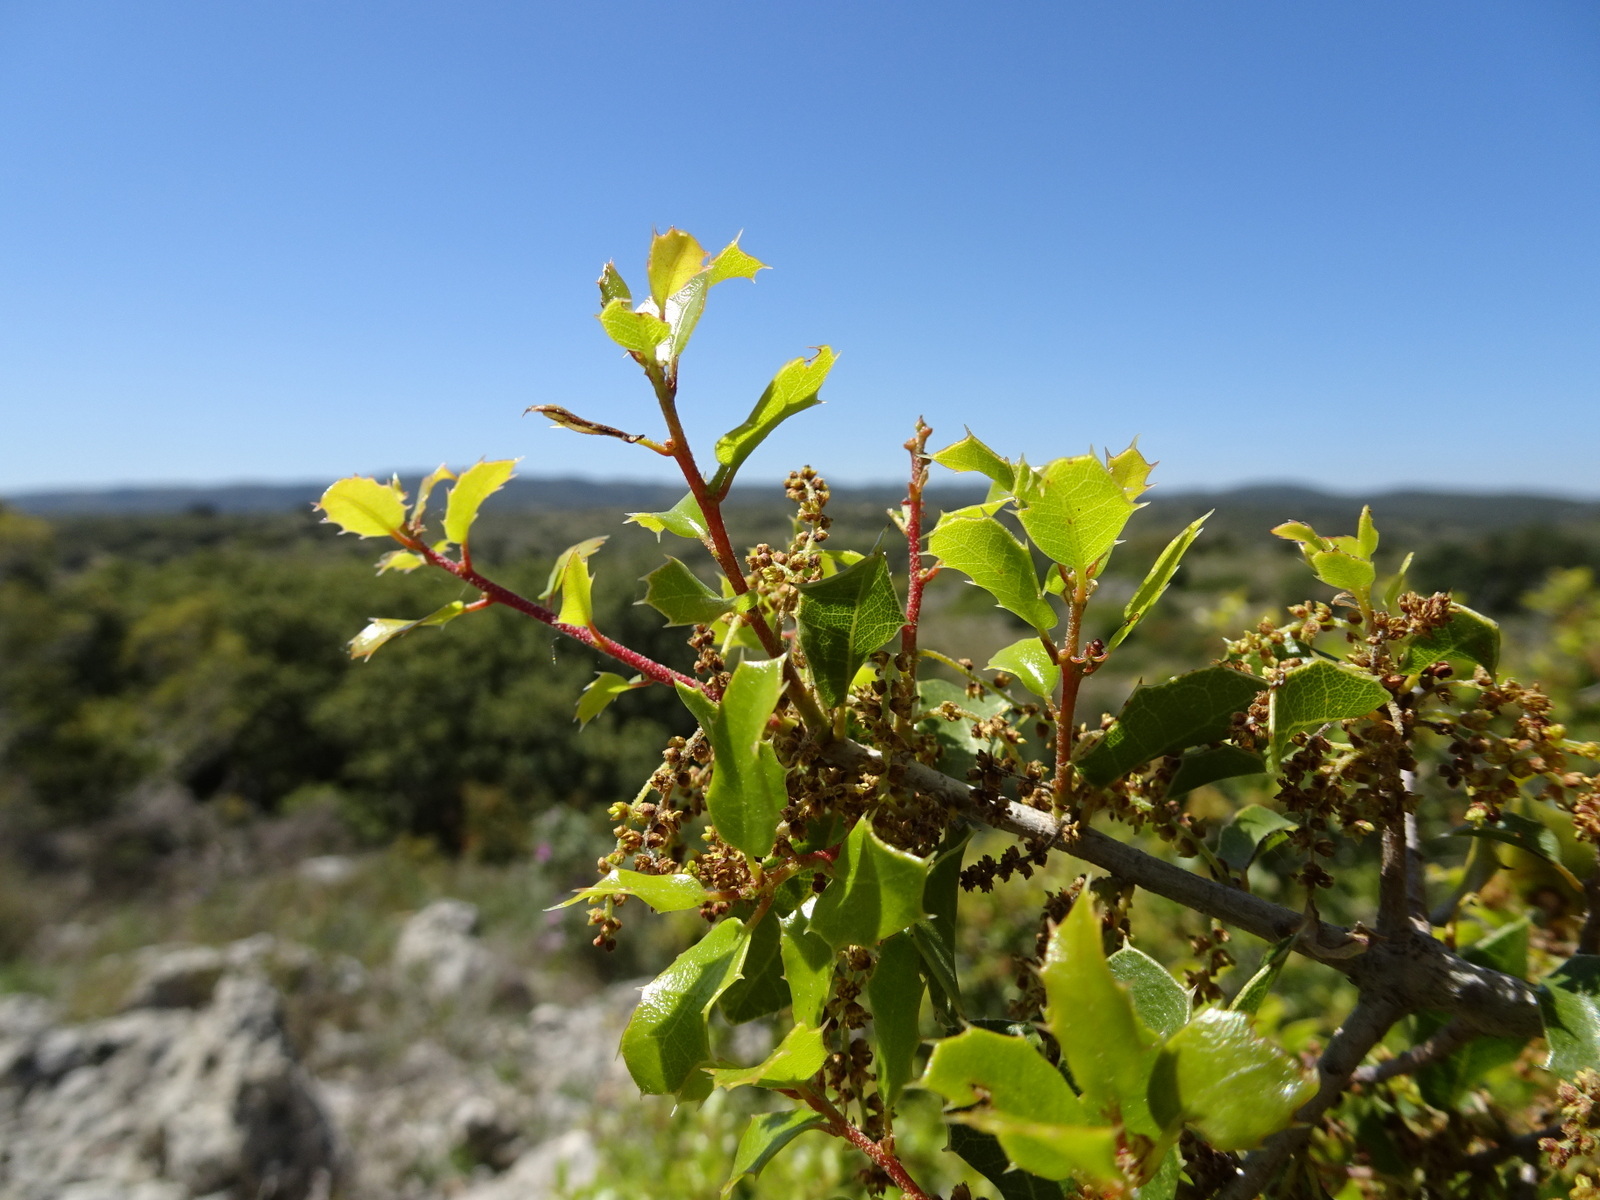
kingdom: Plantae
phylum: Tracheophyta
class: Magnoliopsida
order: Fagales
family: Fagaceae
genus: Quercus
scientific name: Quercus coccifera
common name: Kermes oak
